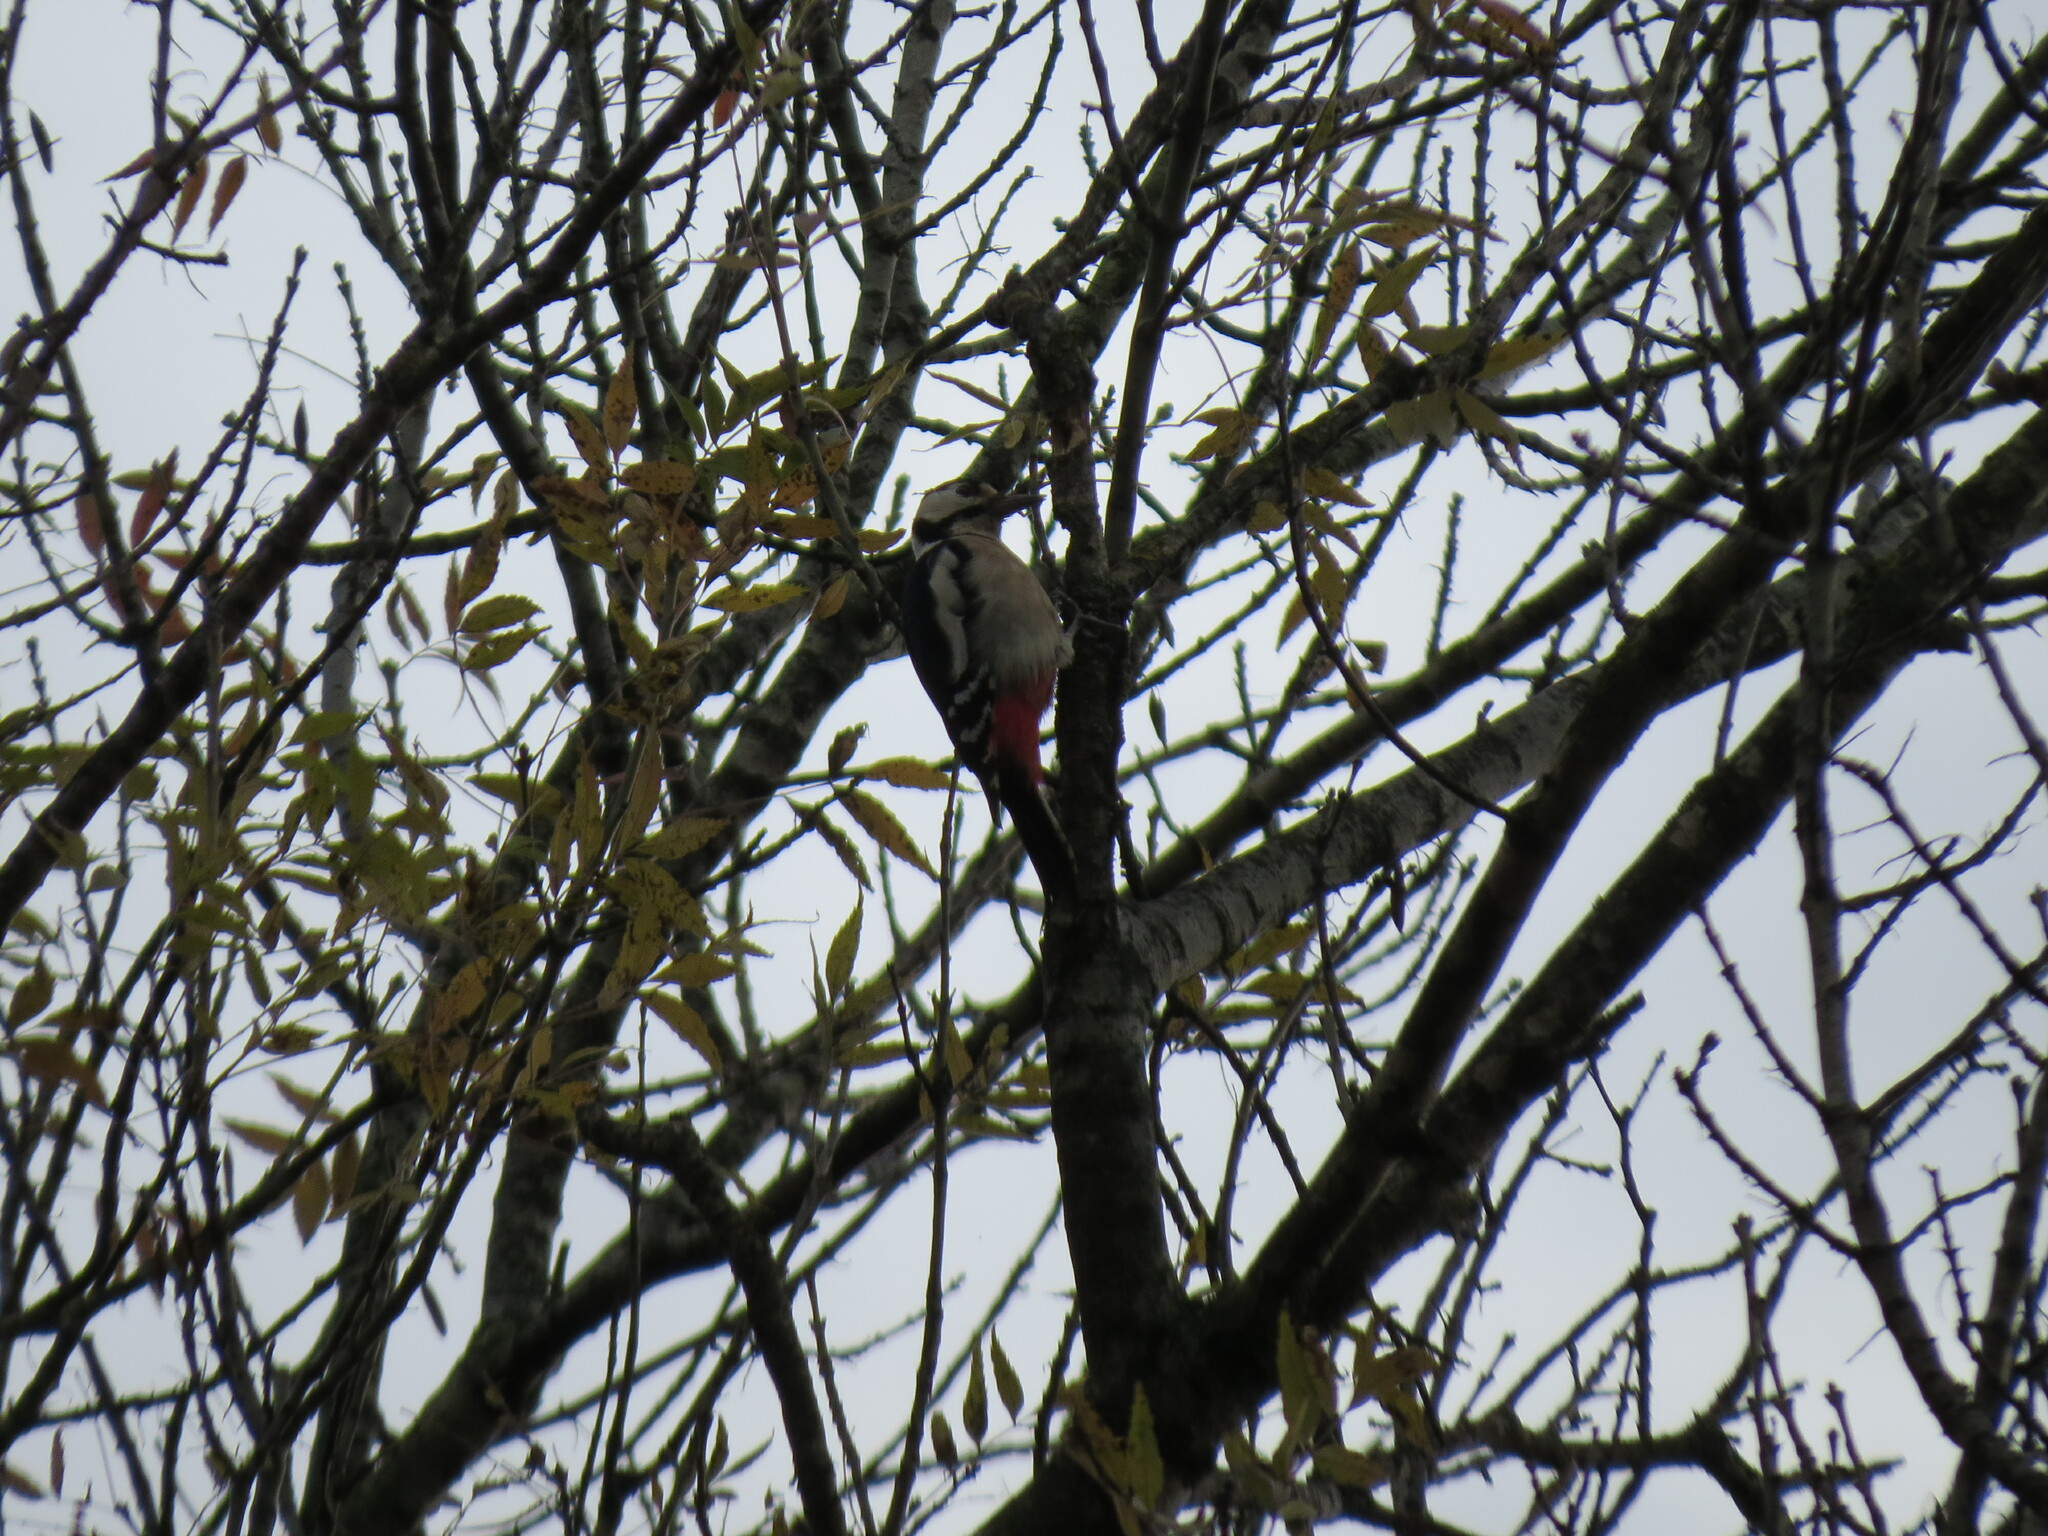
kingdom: Animalia
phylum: Chordata
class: Aves
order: Piciformes
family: Picidae
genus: Dendrocopos
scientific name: Dendrocopos major
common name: Great spotted woodpecker
